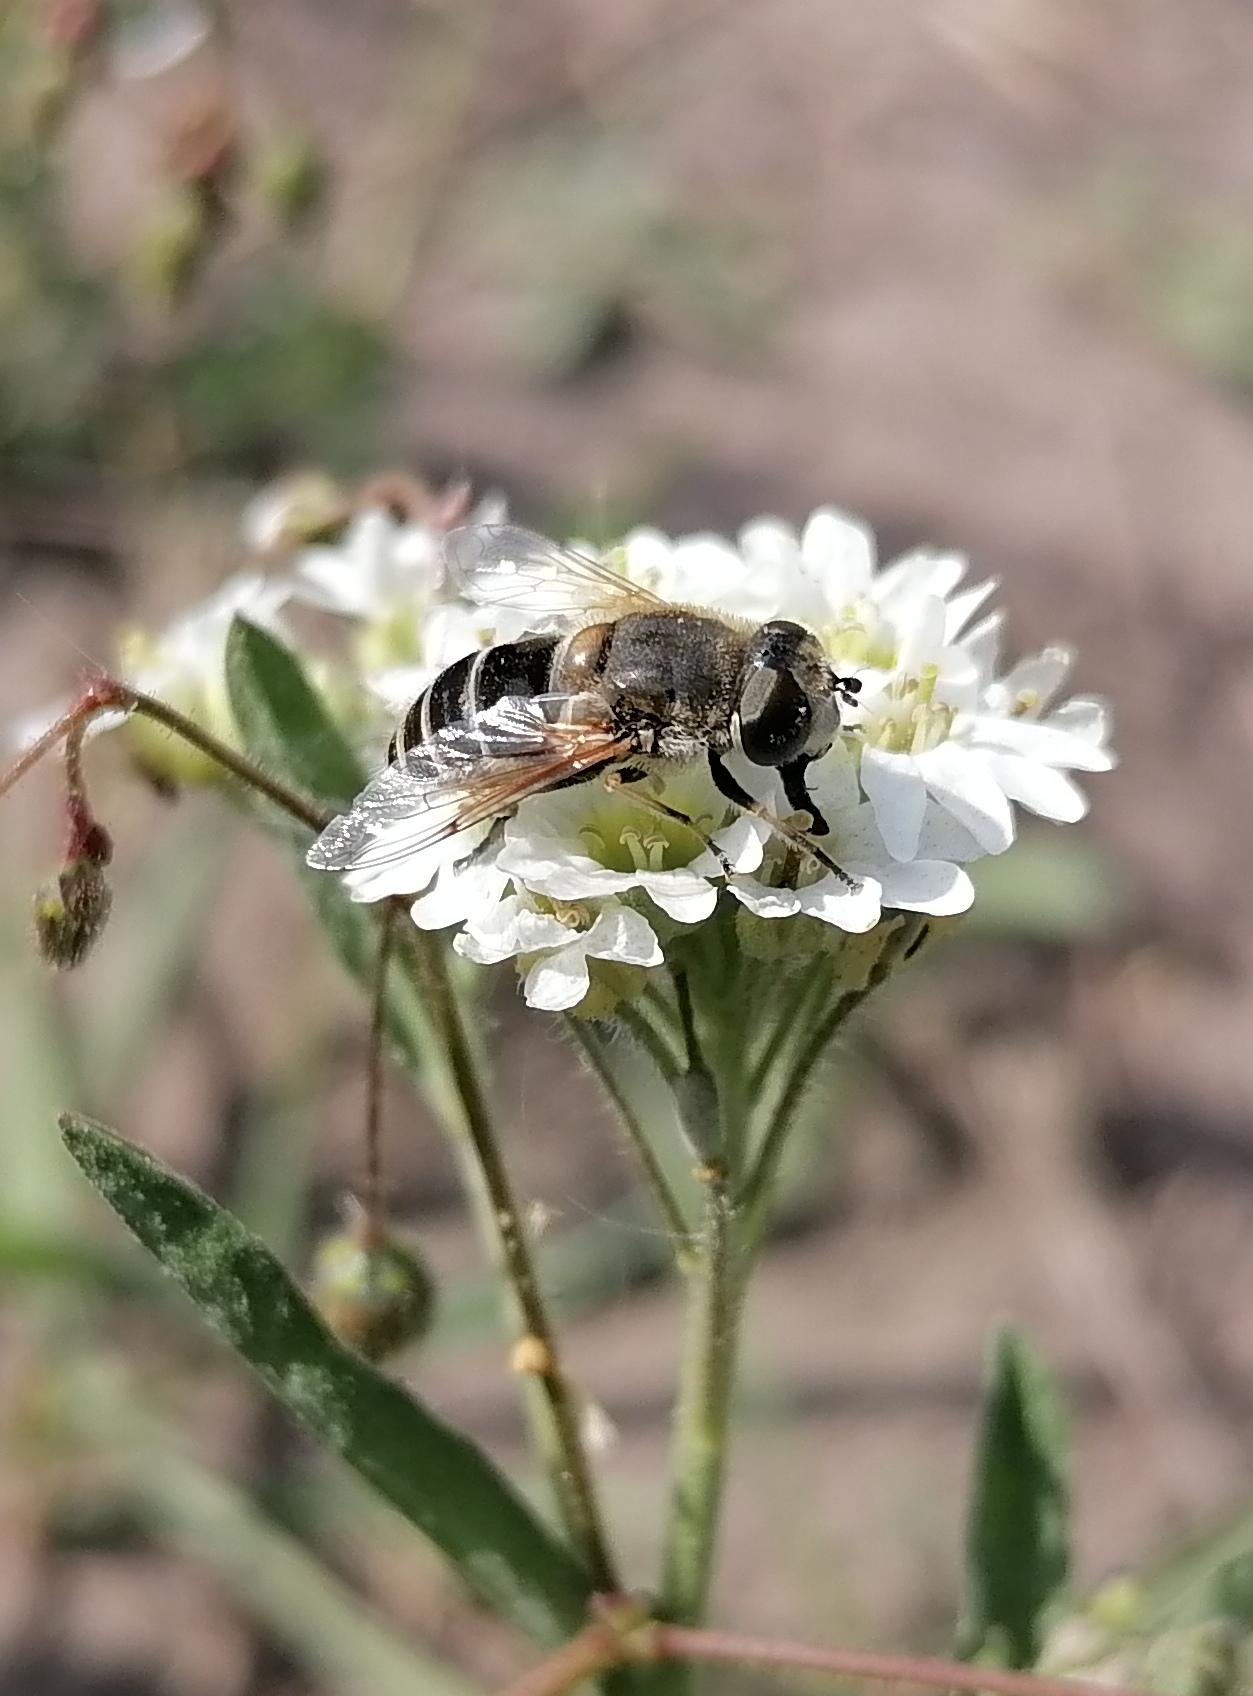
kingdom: Animalia
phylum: Arthropoda
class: Insecta
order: Diptera
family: Syrphidae
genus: Eristalis
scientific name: Eristalis arbustorum
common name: Hover fly
